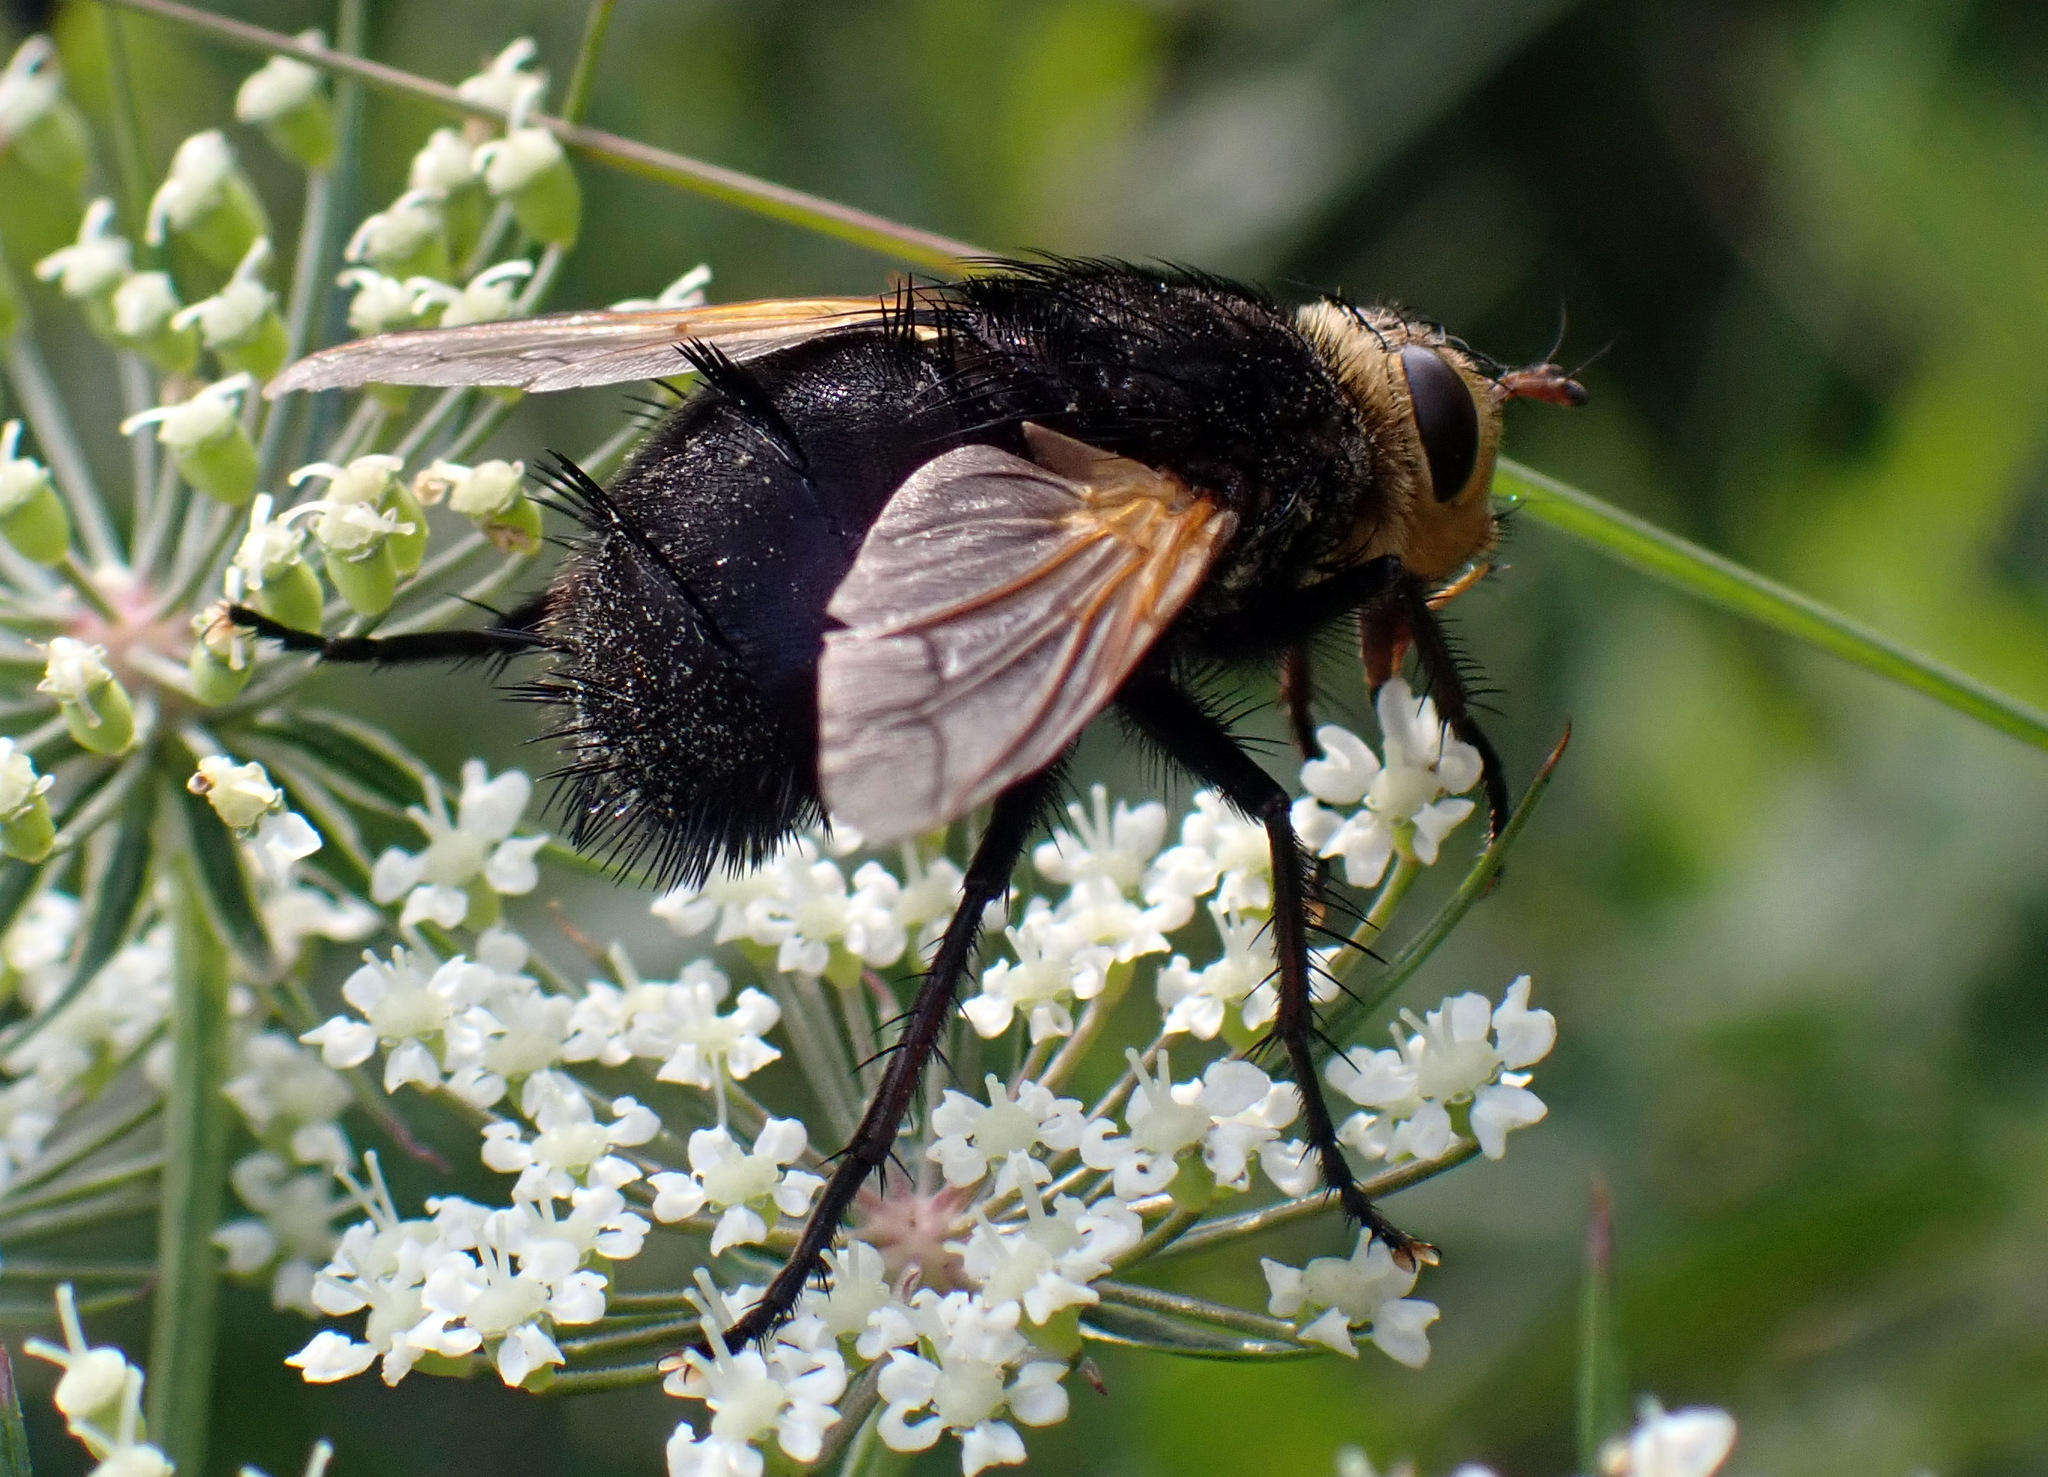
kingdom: Animalia
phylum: Arthropoda
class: Insecta
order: Diptera
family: Tachinidae
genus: Tachina
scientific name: Tachina grossa
